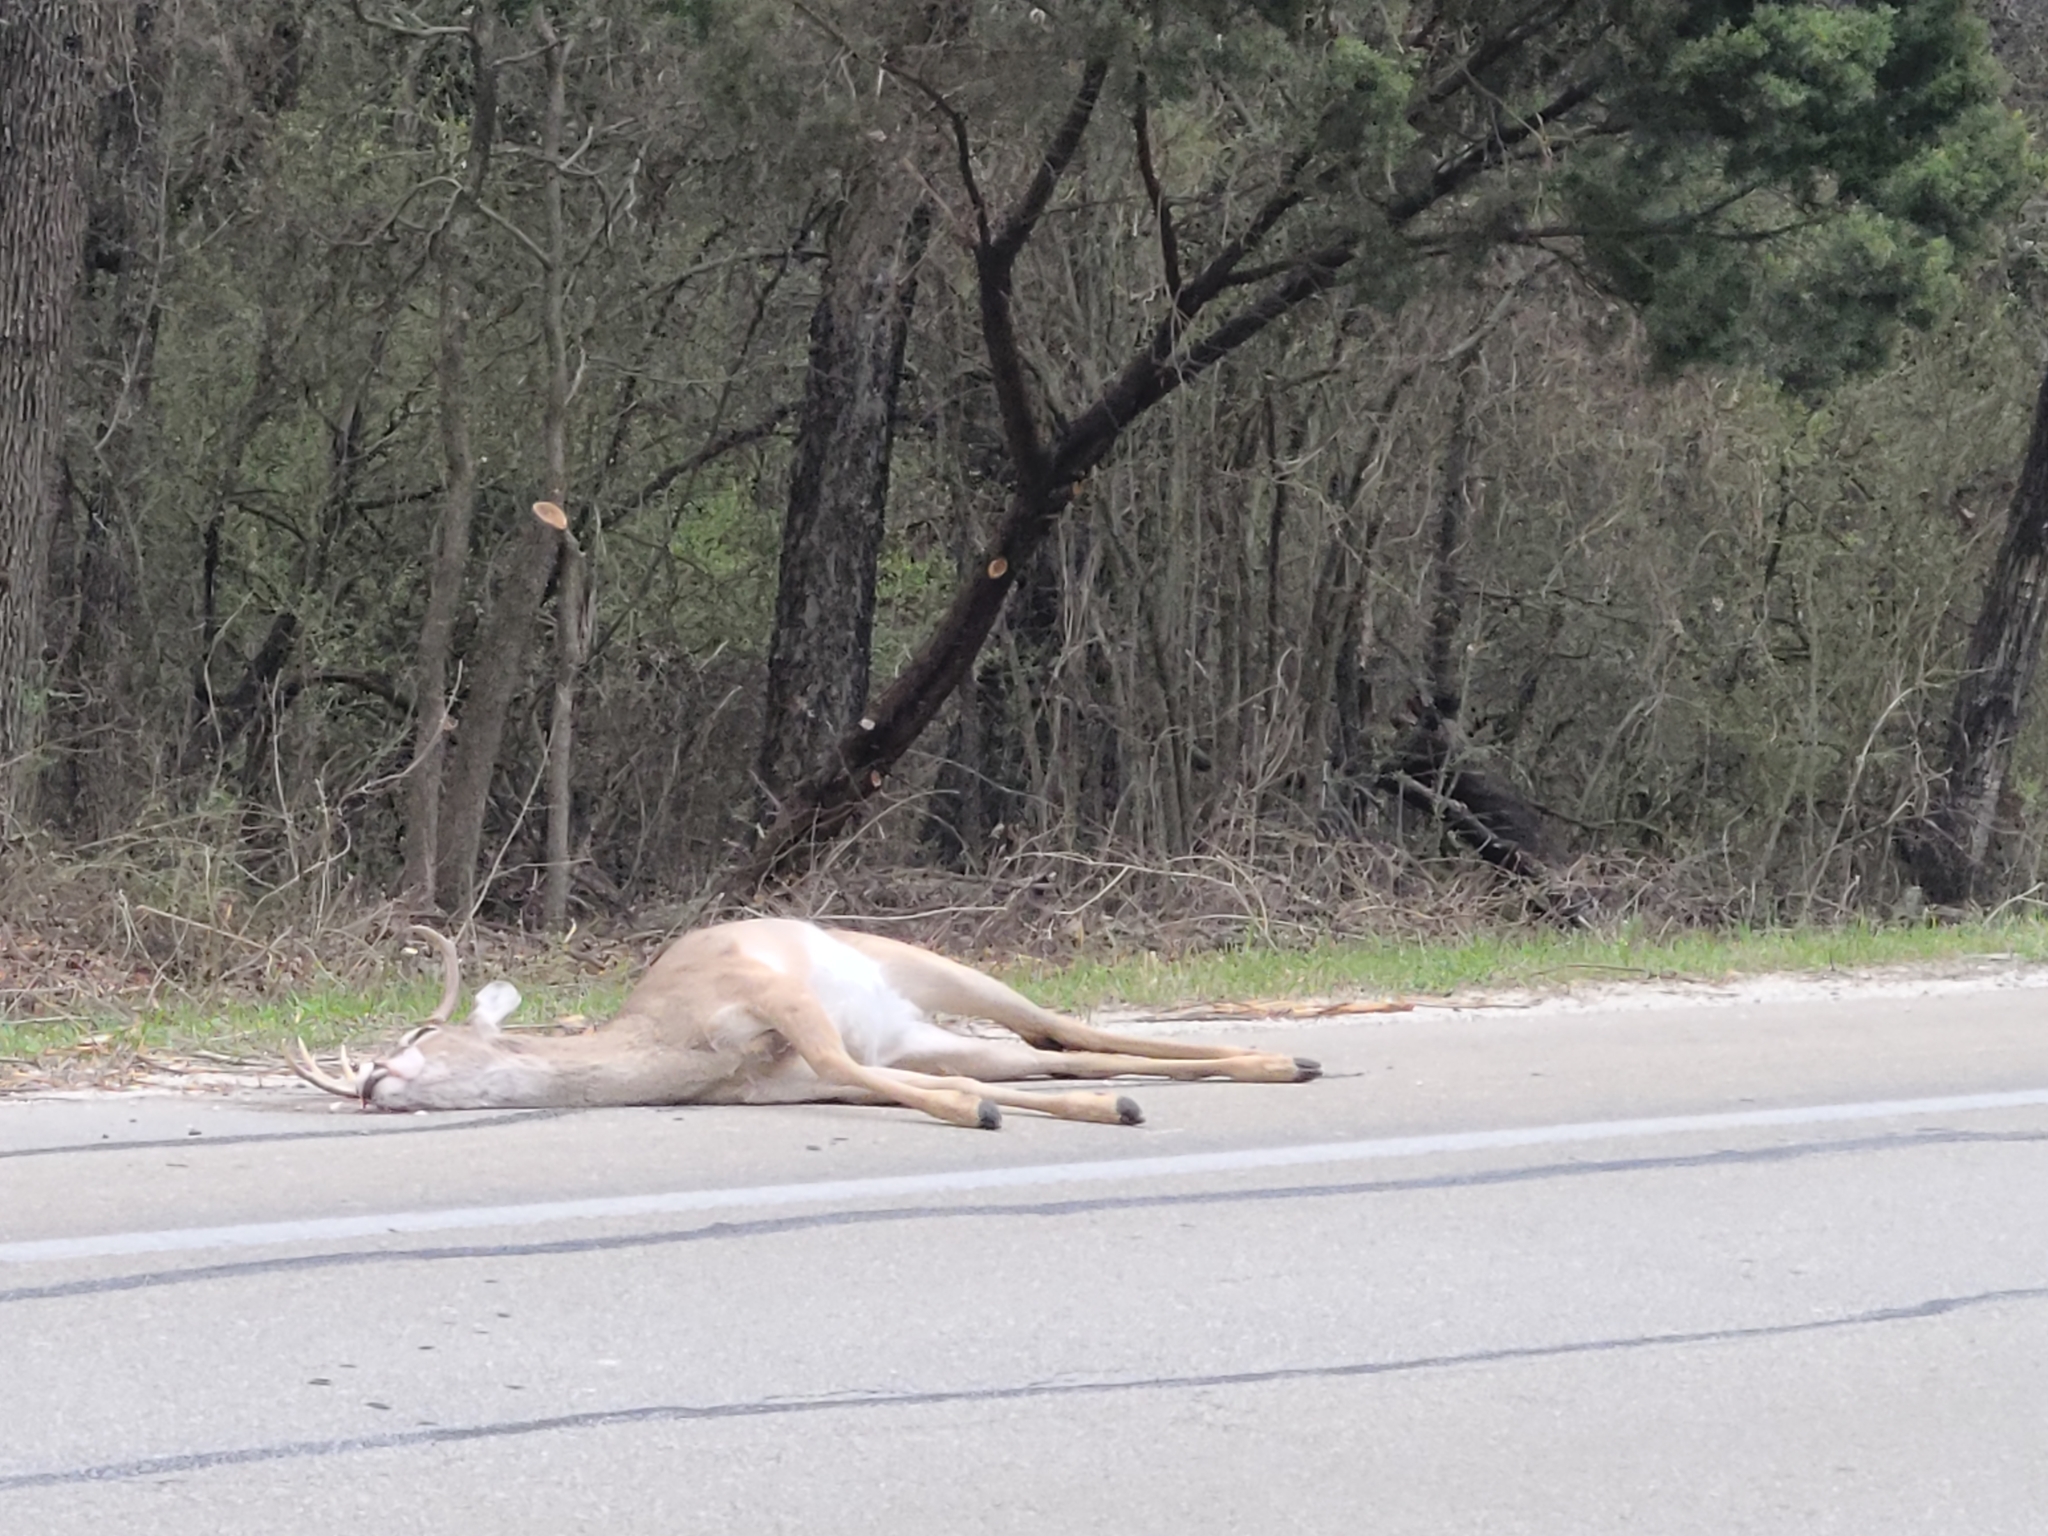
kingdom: Animalia
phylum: Chordata
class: Mammalia
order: Artiodactyla
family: Cervidae
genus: Odocoileus
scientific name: Odocoileus virginianus
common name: White-tailed deer
